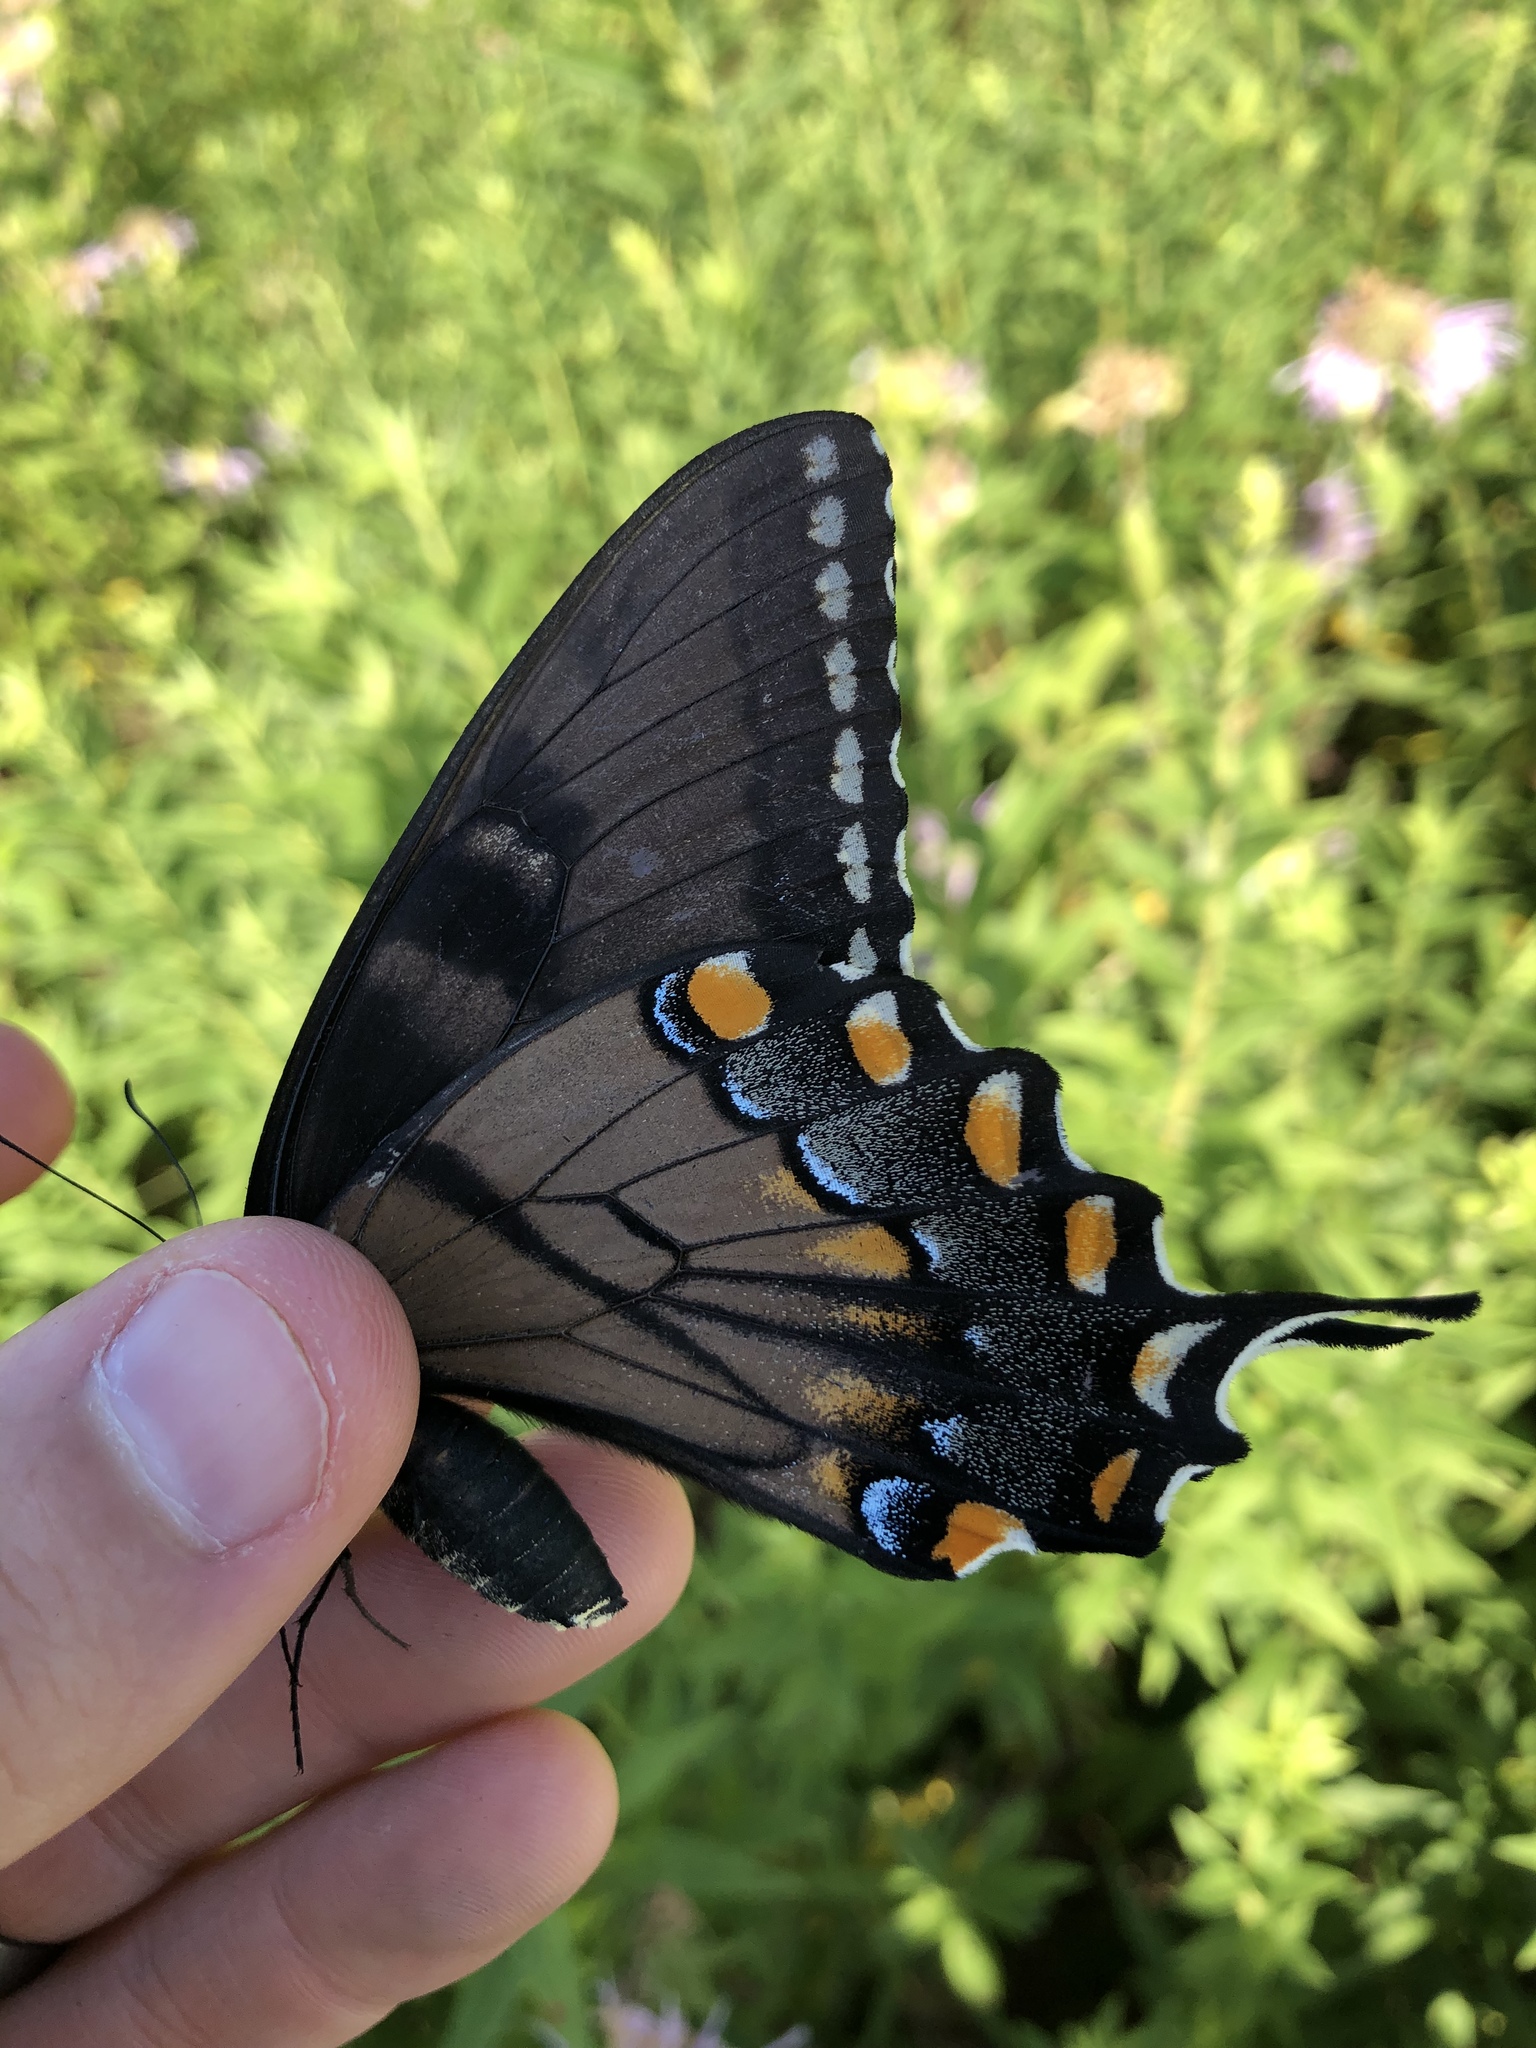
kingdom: Animalia
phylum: Arthropoda
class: Insecta
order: Lepidoptera
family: Papilionidae
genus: Papilio
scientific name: Papilio glaucus
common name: Tiger swallowtail
